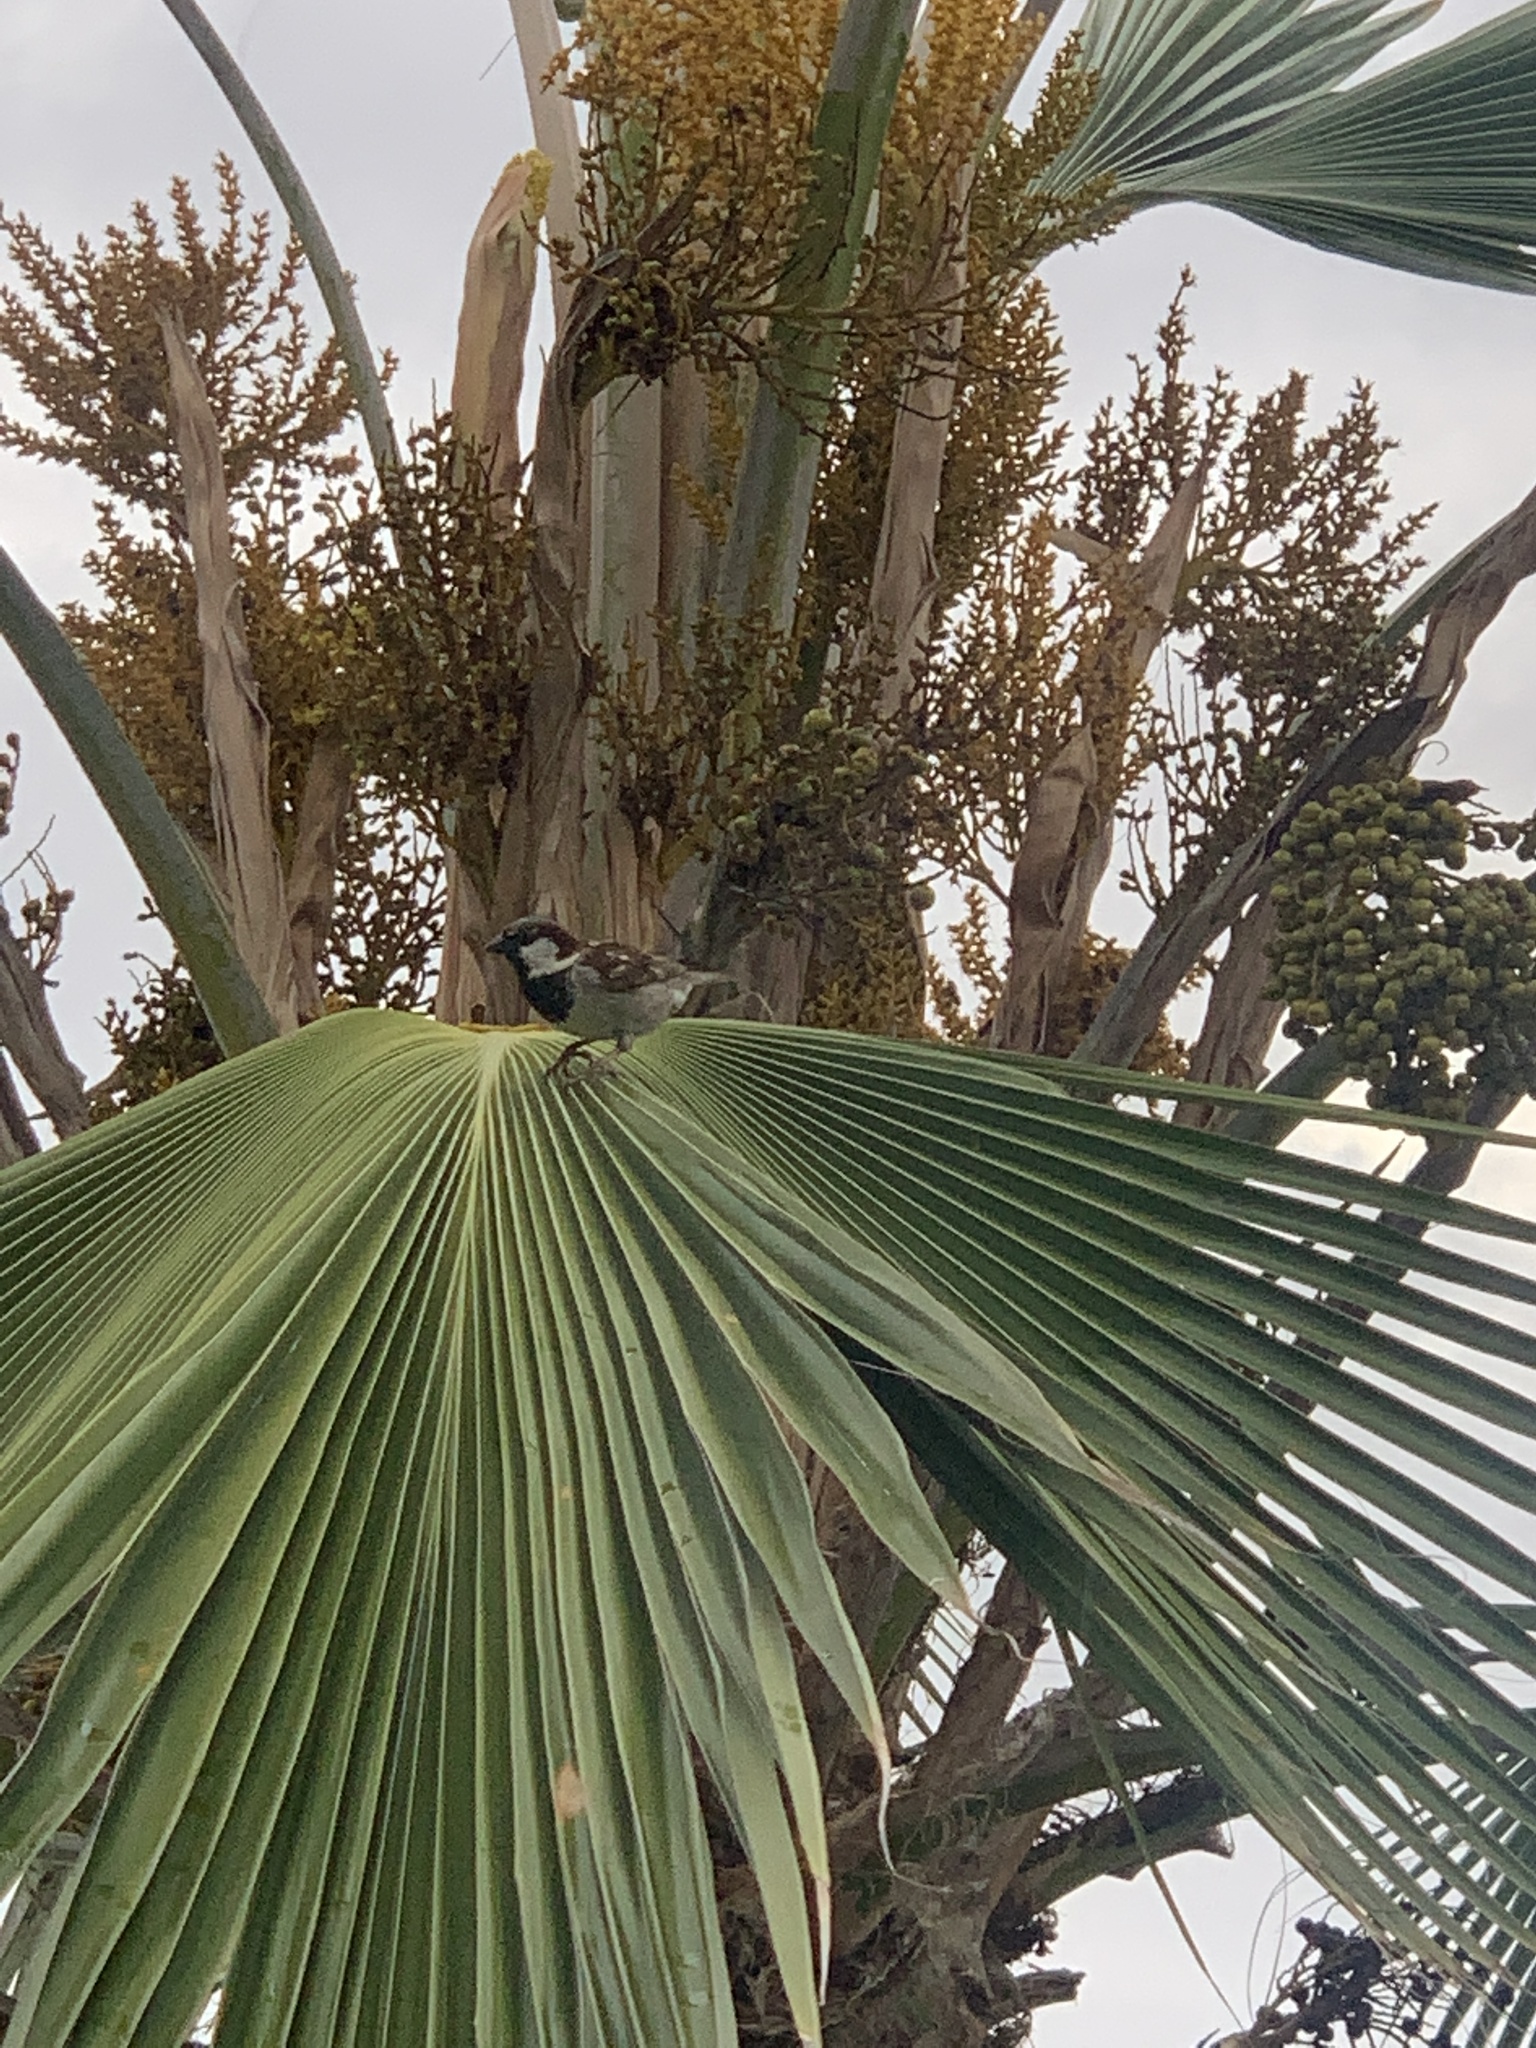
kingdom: Animalia
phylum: Chordata
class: Aves
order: Passeriformes
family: Passeridae
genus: Passer
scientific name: Passer domesticus
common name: House sparrow
